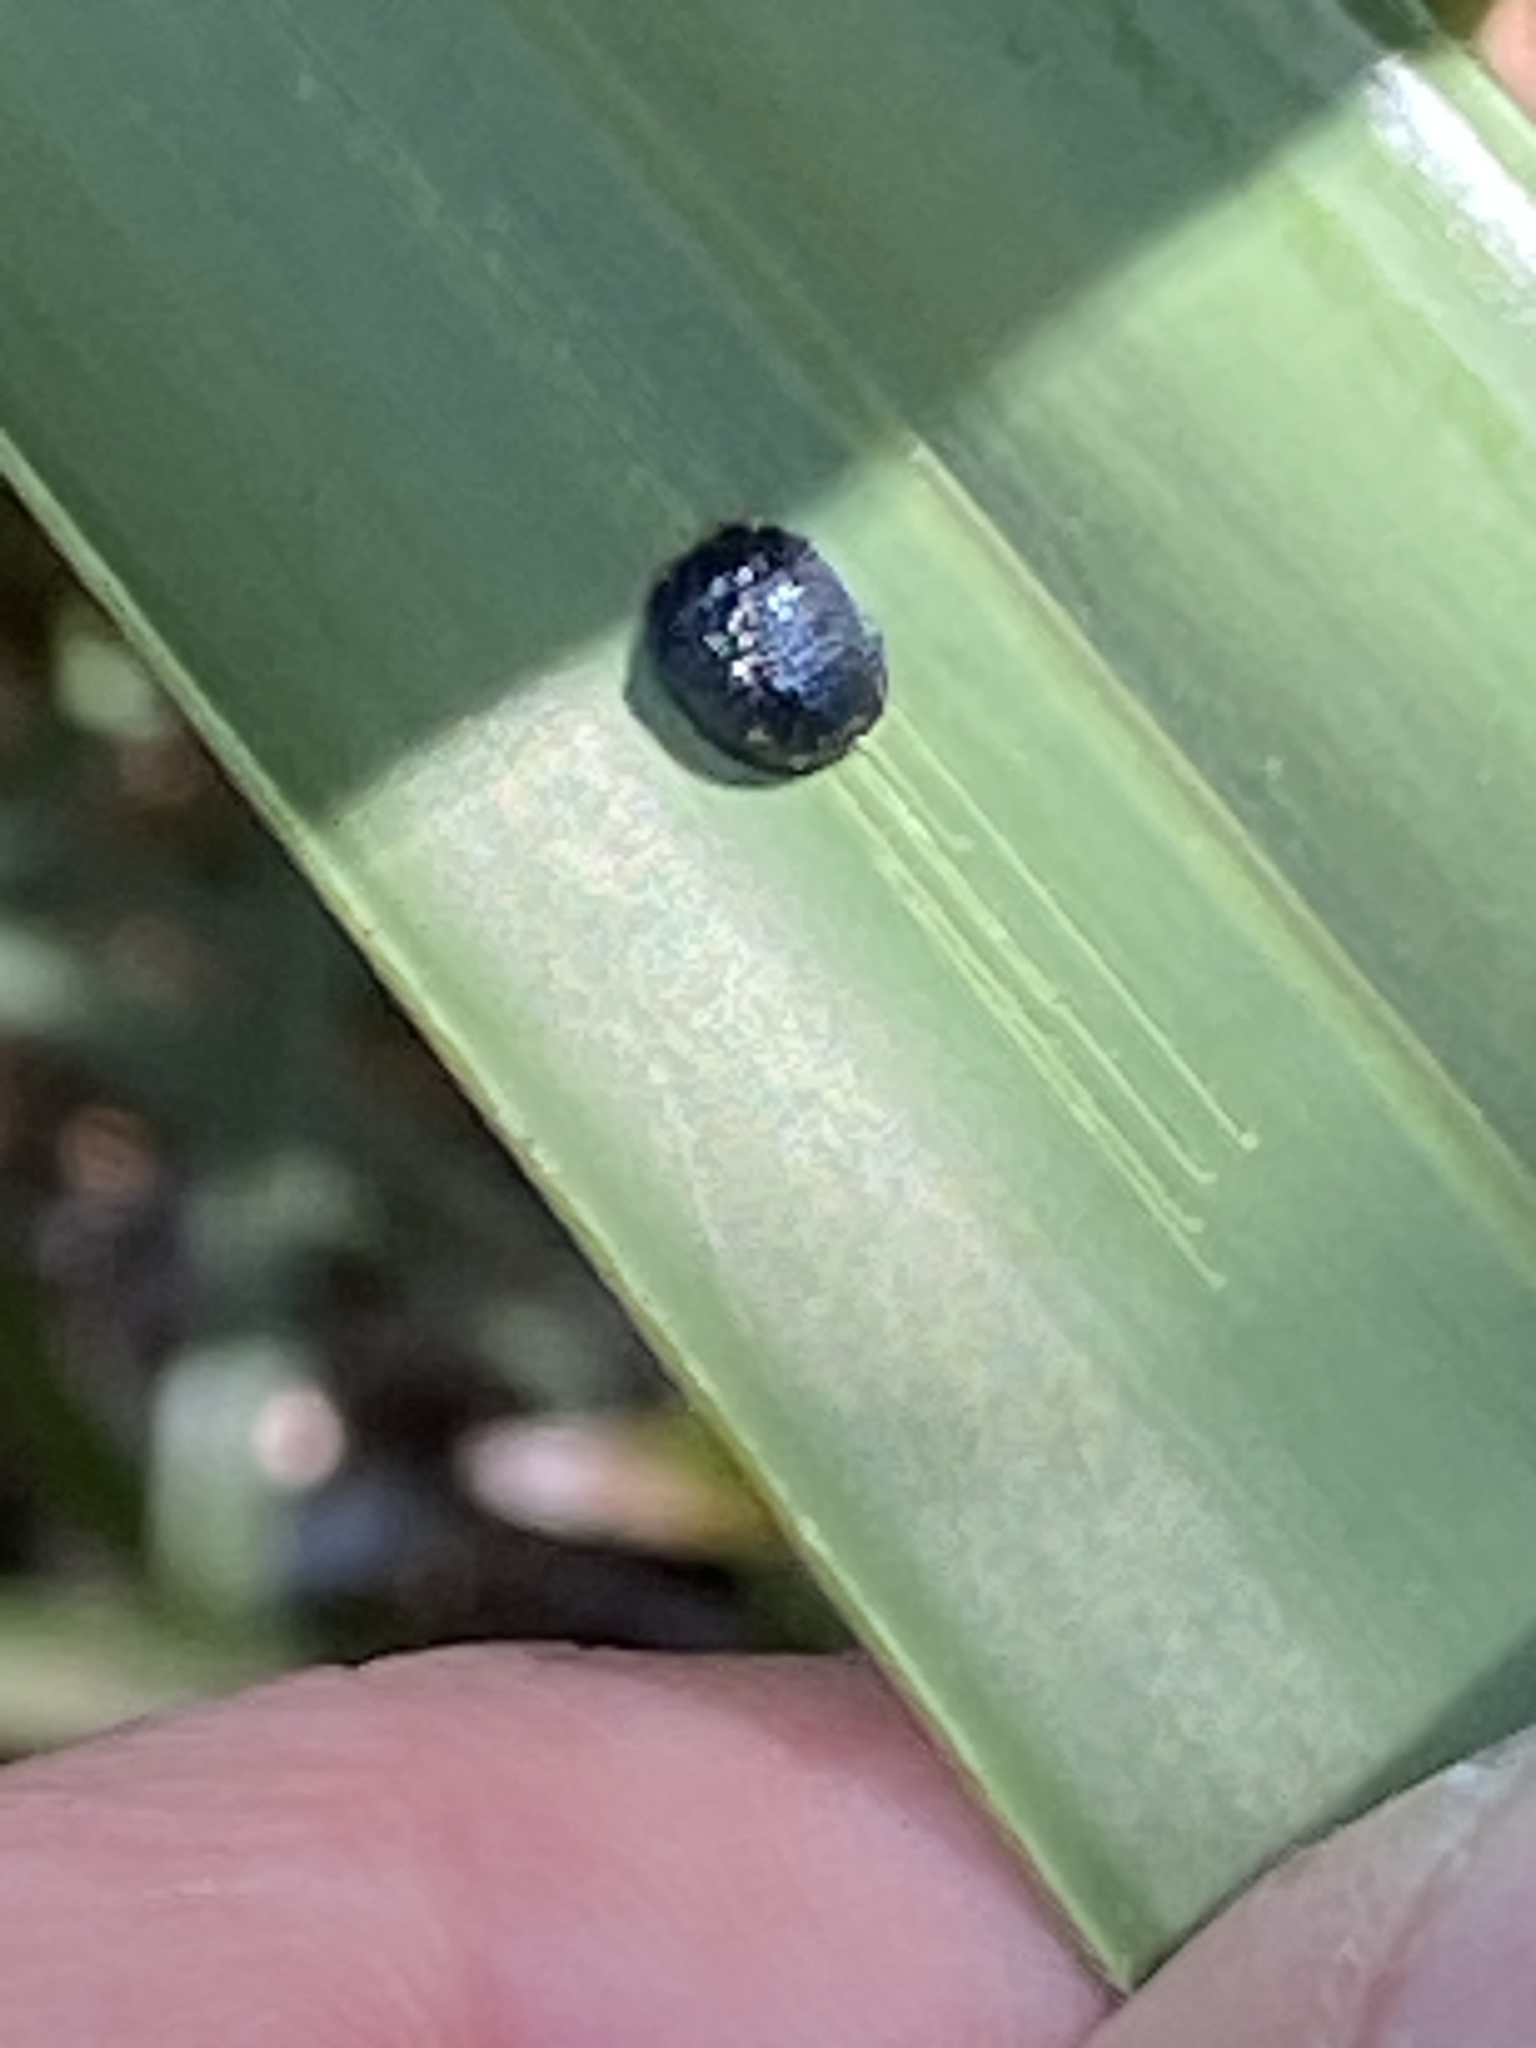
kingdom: Animalia
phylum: Arthropoda
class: Insecta
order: Coleoptera
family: Chrysomelidae
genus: Hemisphaerota
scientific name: Hemisphaerota cyanea
